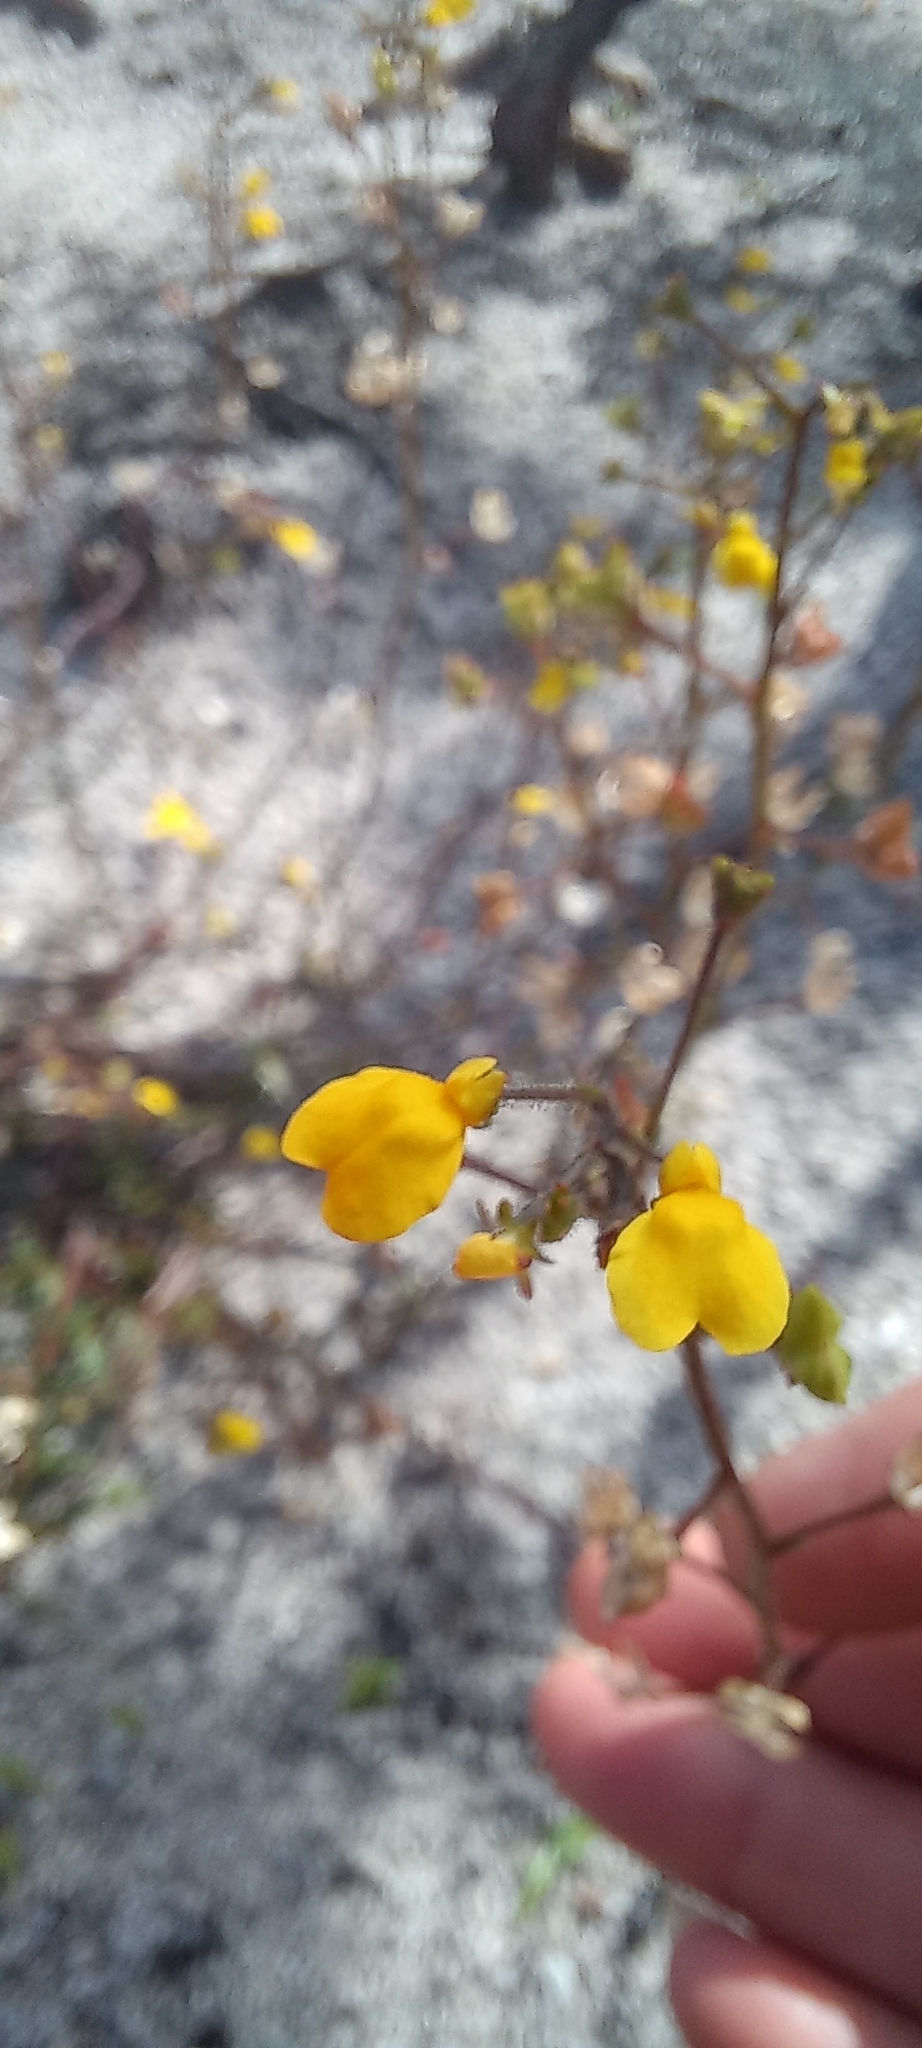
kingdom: Plantae
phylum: Tracheophyta
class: Magnoliopsida
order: Lamiales
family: Scrophulariaceae
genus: Nemesia
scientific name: Nemesia pinnata
